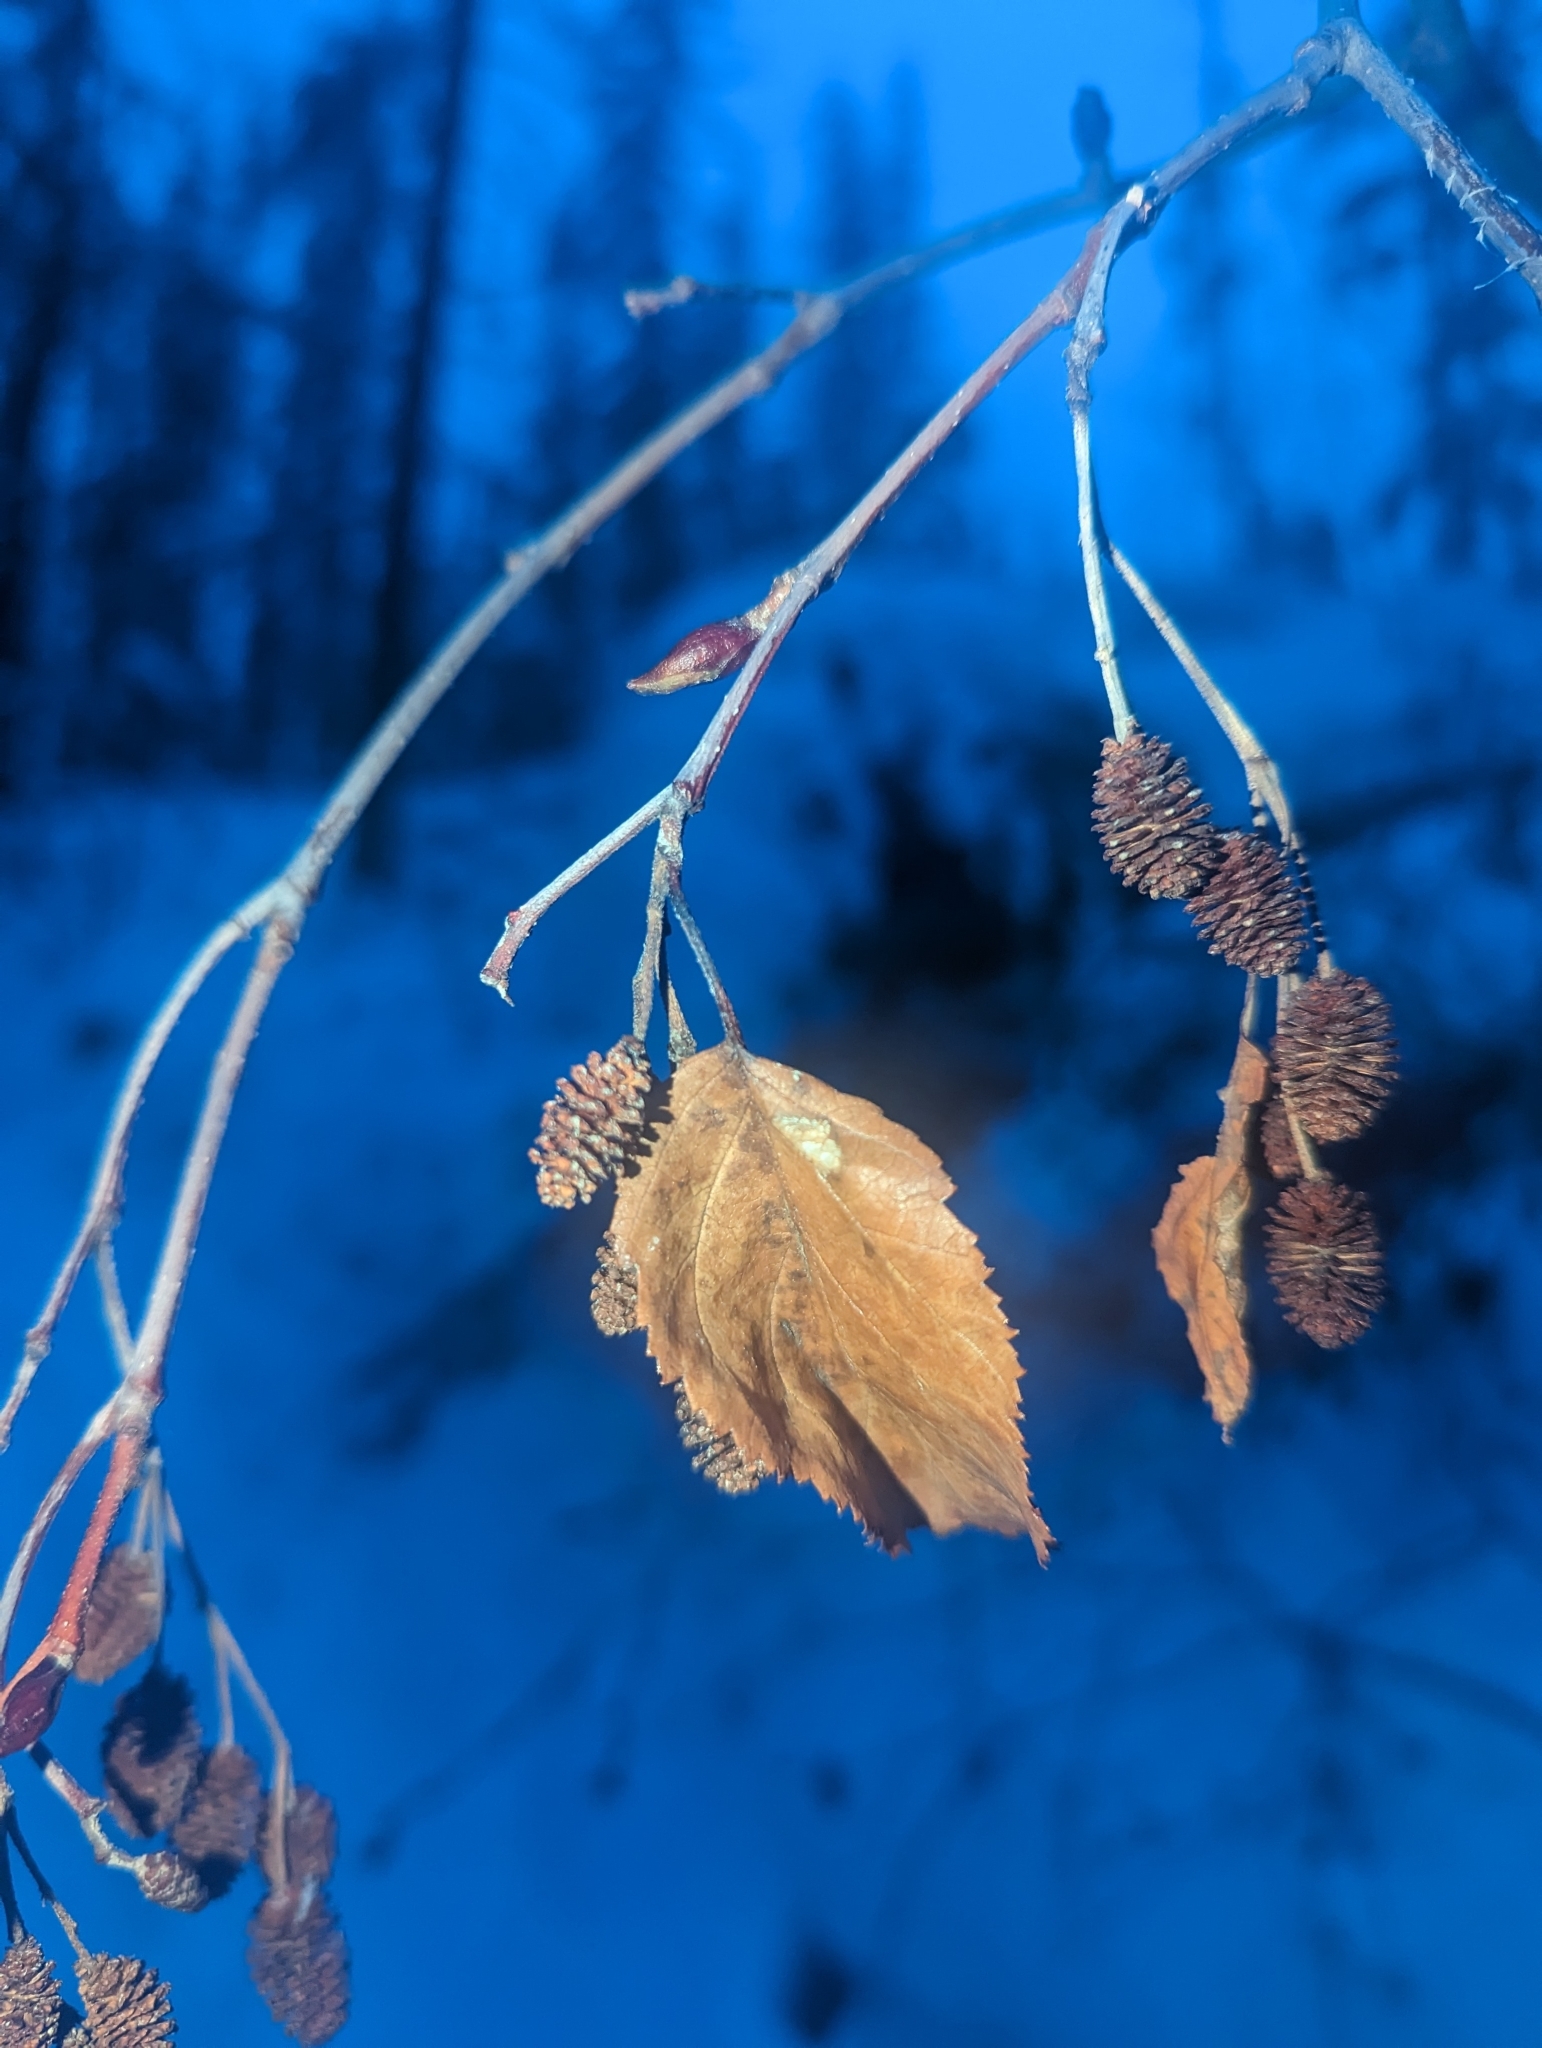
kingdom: Plantae
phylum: Tracheophyta
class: Magnoliopsida
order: Fagales
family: Betulaceae
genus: Alnus
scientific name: Alnus alnobetula
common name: Green alder
